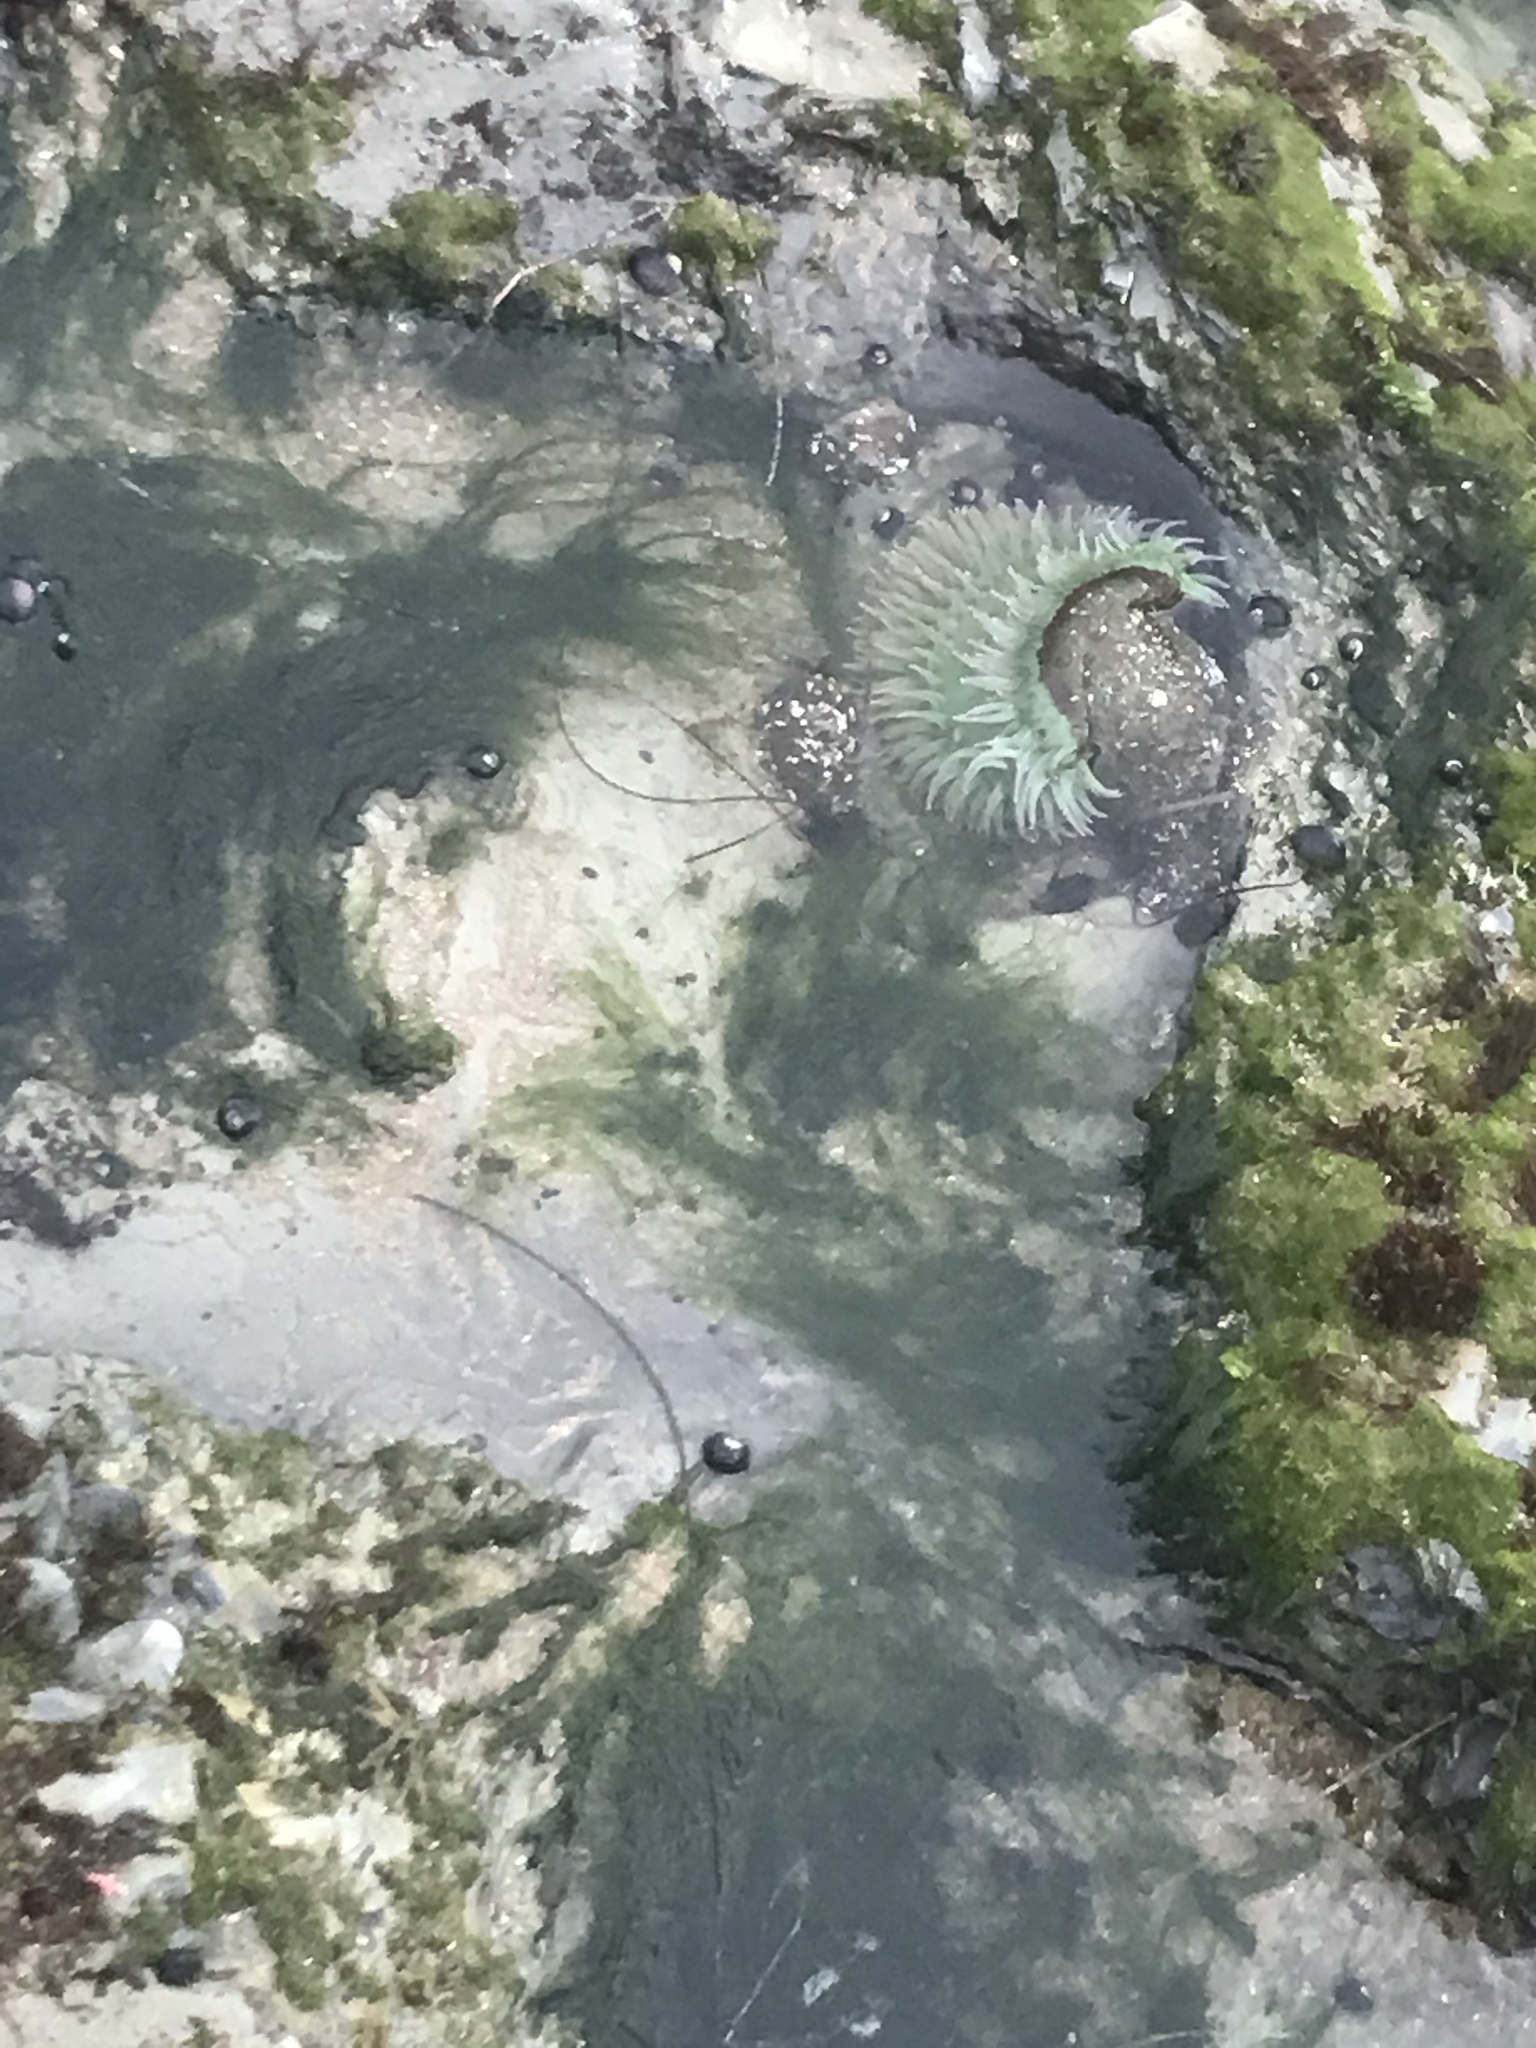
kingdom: Animalia
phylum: Cnidaria
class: Anthozoa
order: Actiniaria
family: Actiniidae
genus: Anthopleura
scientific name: Anthopleura xanthogrammica
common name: Giant green anemone
